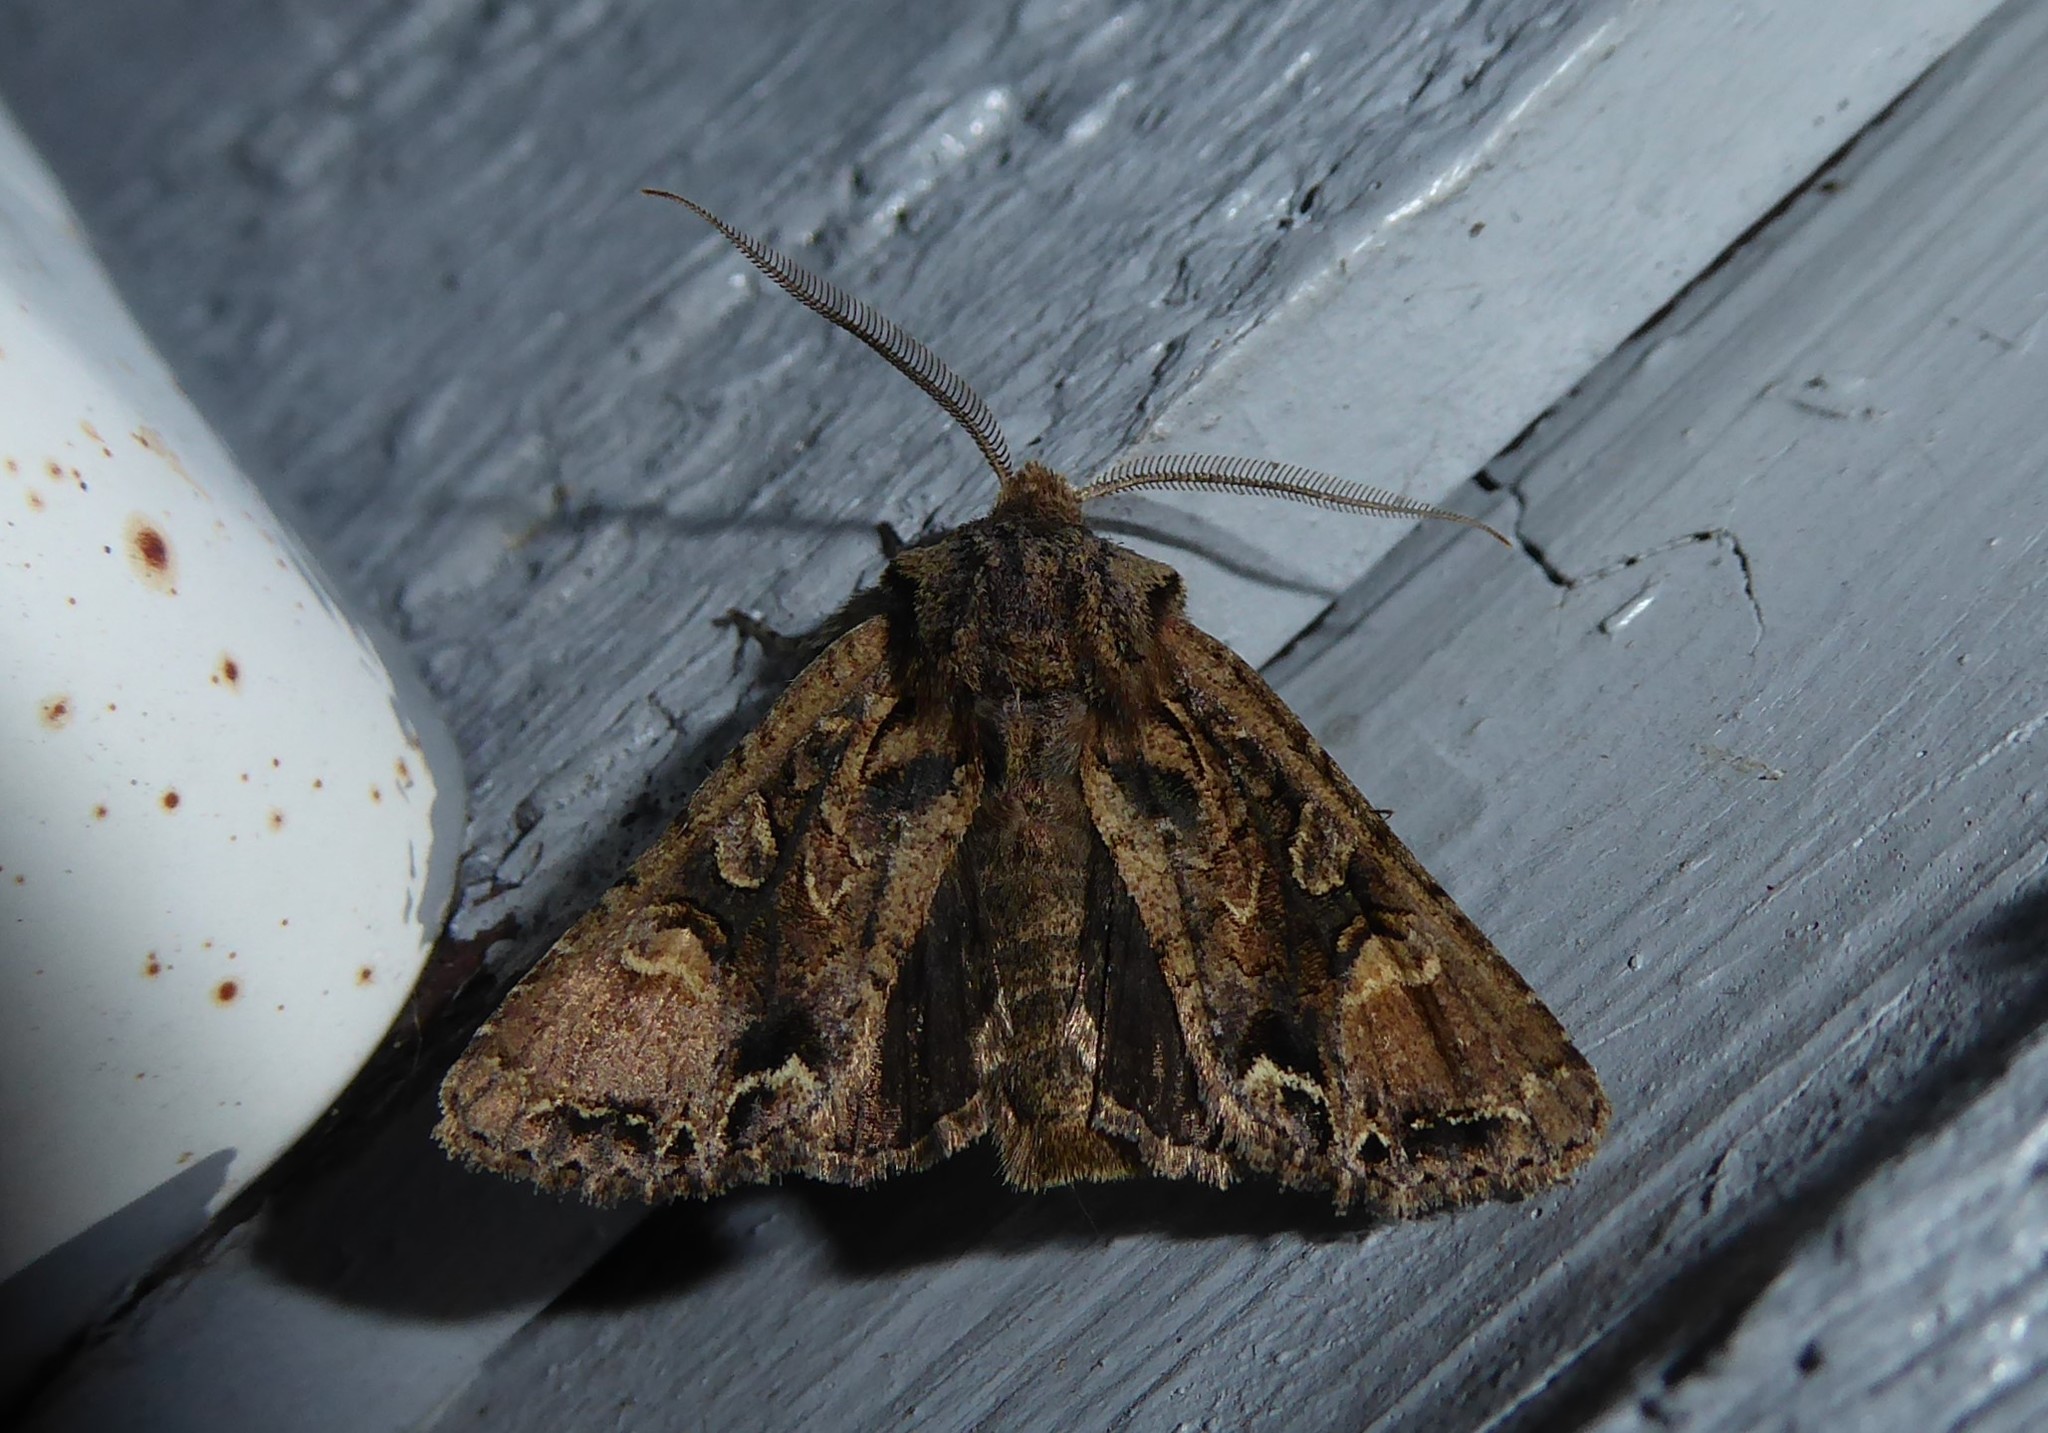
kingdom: Animalia
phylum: Arthropoda
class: Insecta
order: Lepidoptera
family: Noctuidae
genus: Ichneutica
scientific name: Ichneutica skelloni
